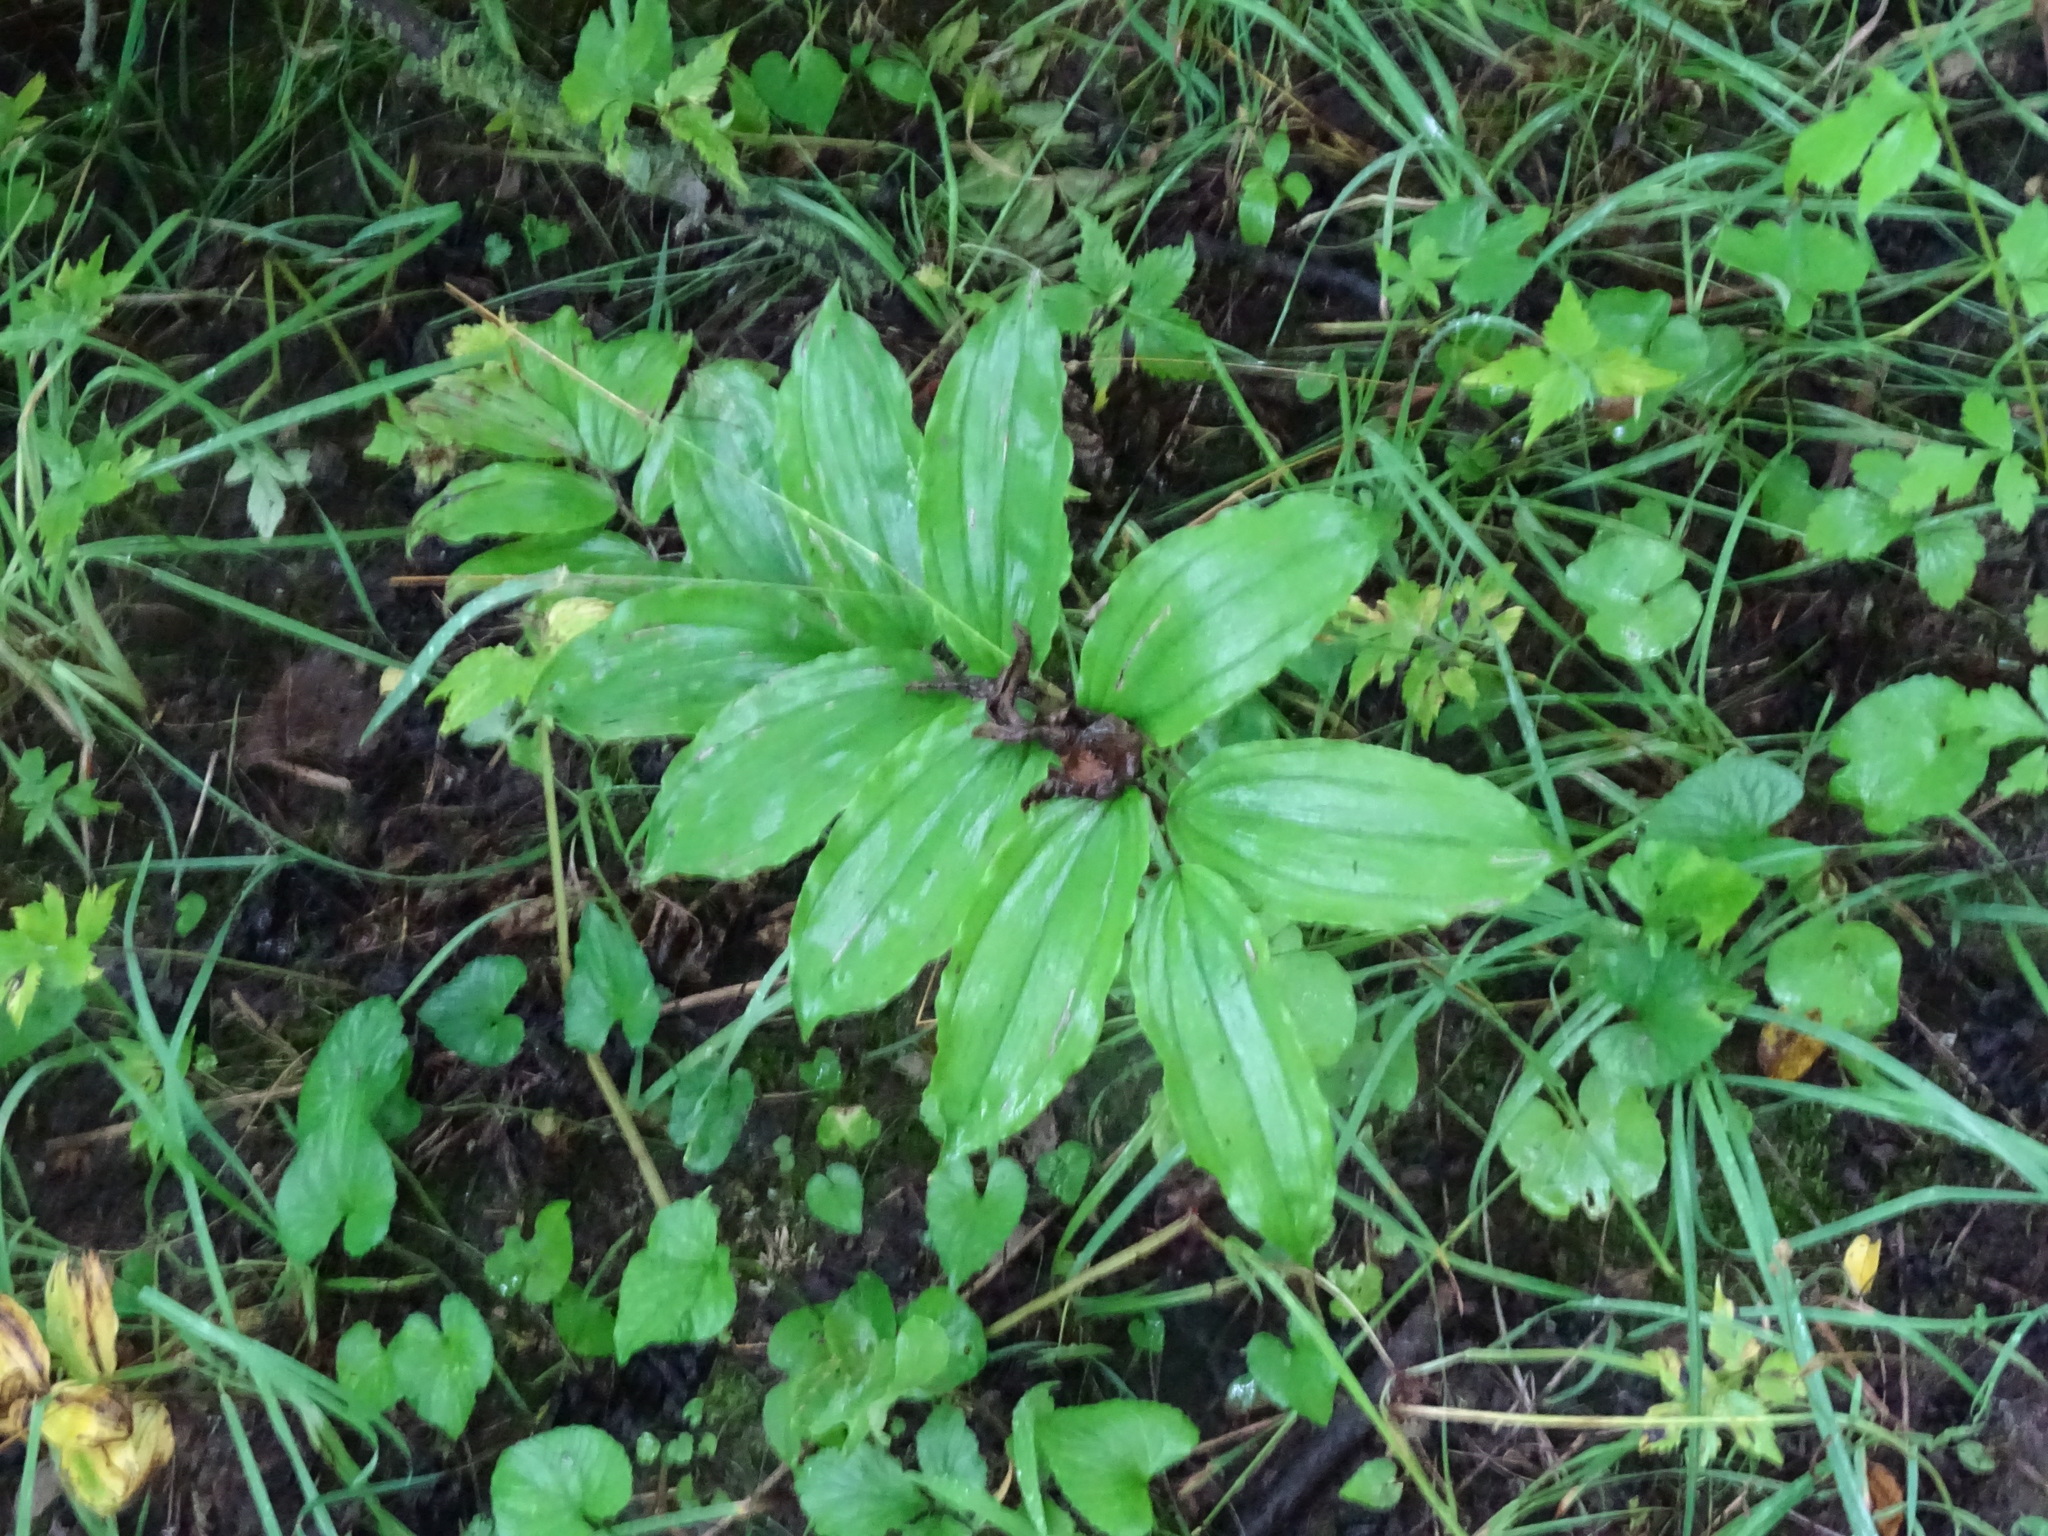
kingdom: Plantae
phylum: Tracheophyta
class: Liliopsida
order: Asparagales
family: Asparagaceae
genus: Maianthemum
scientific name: Maianthemum racemosum
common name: False spikenard
